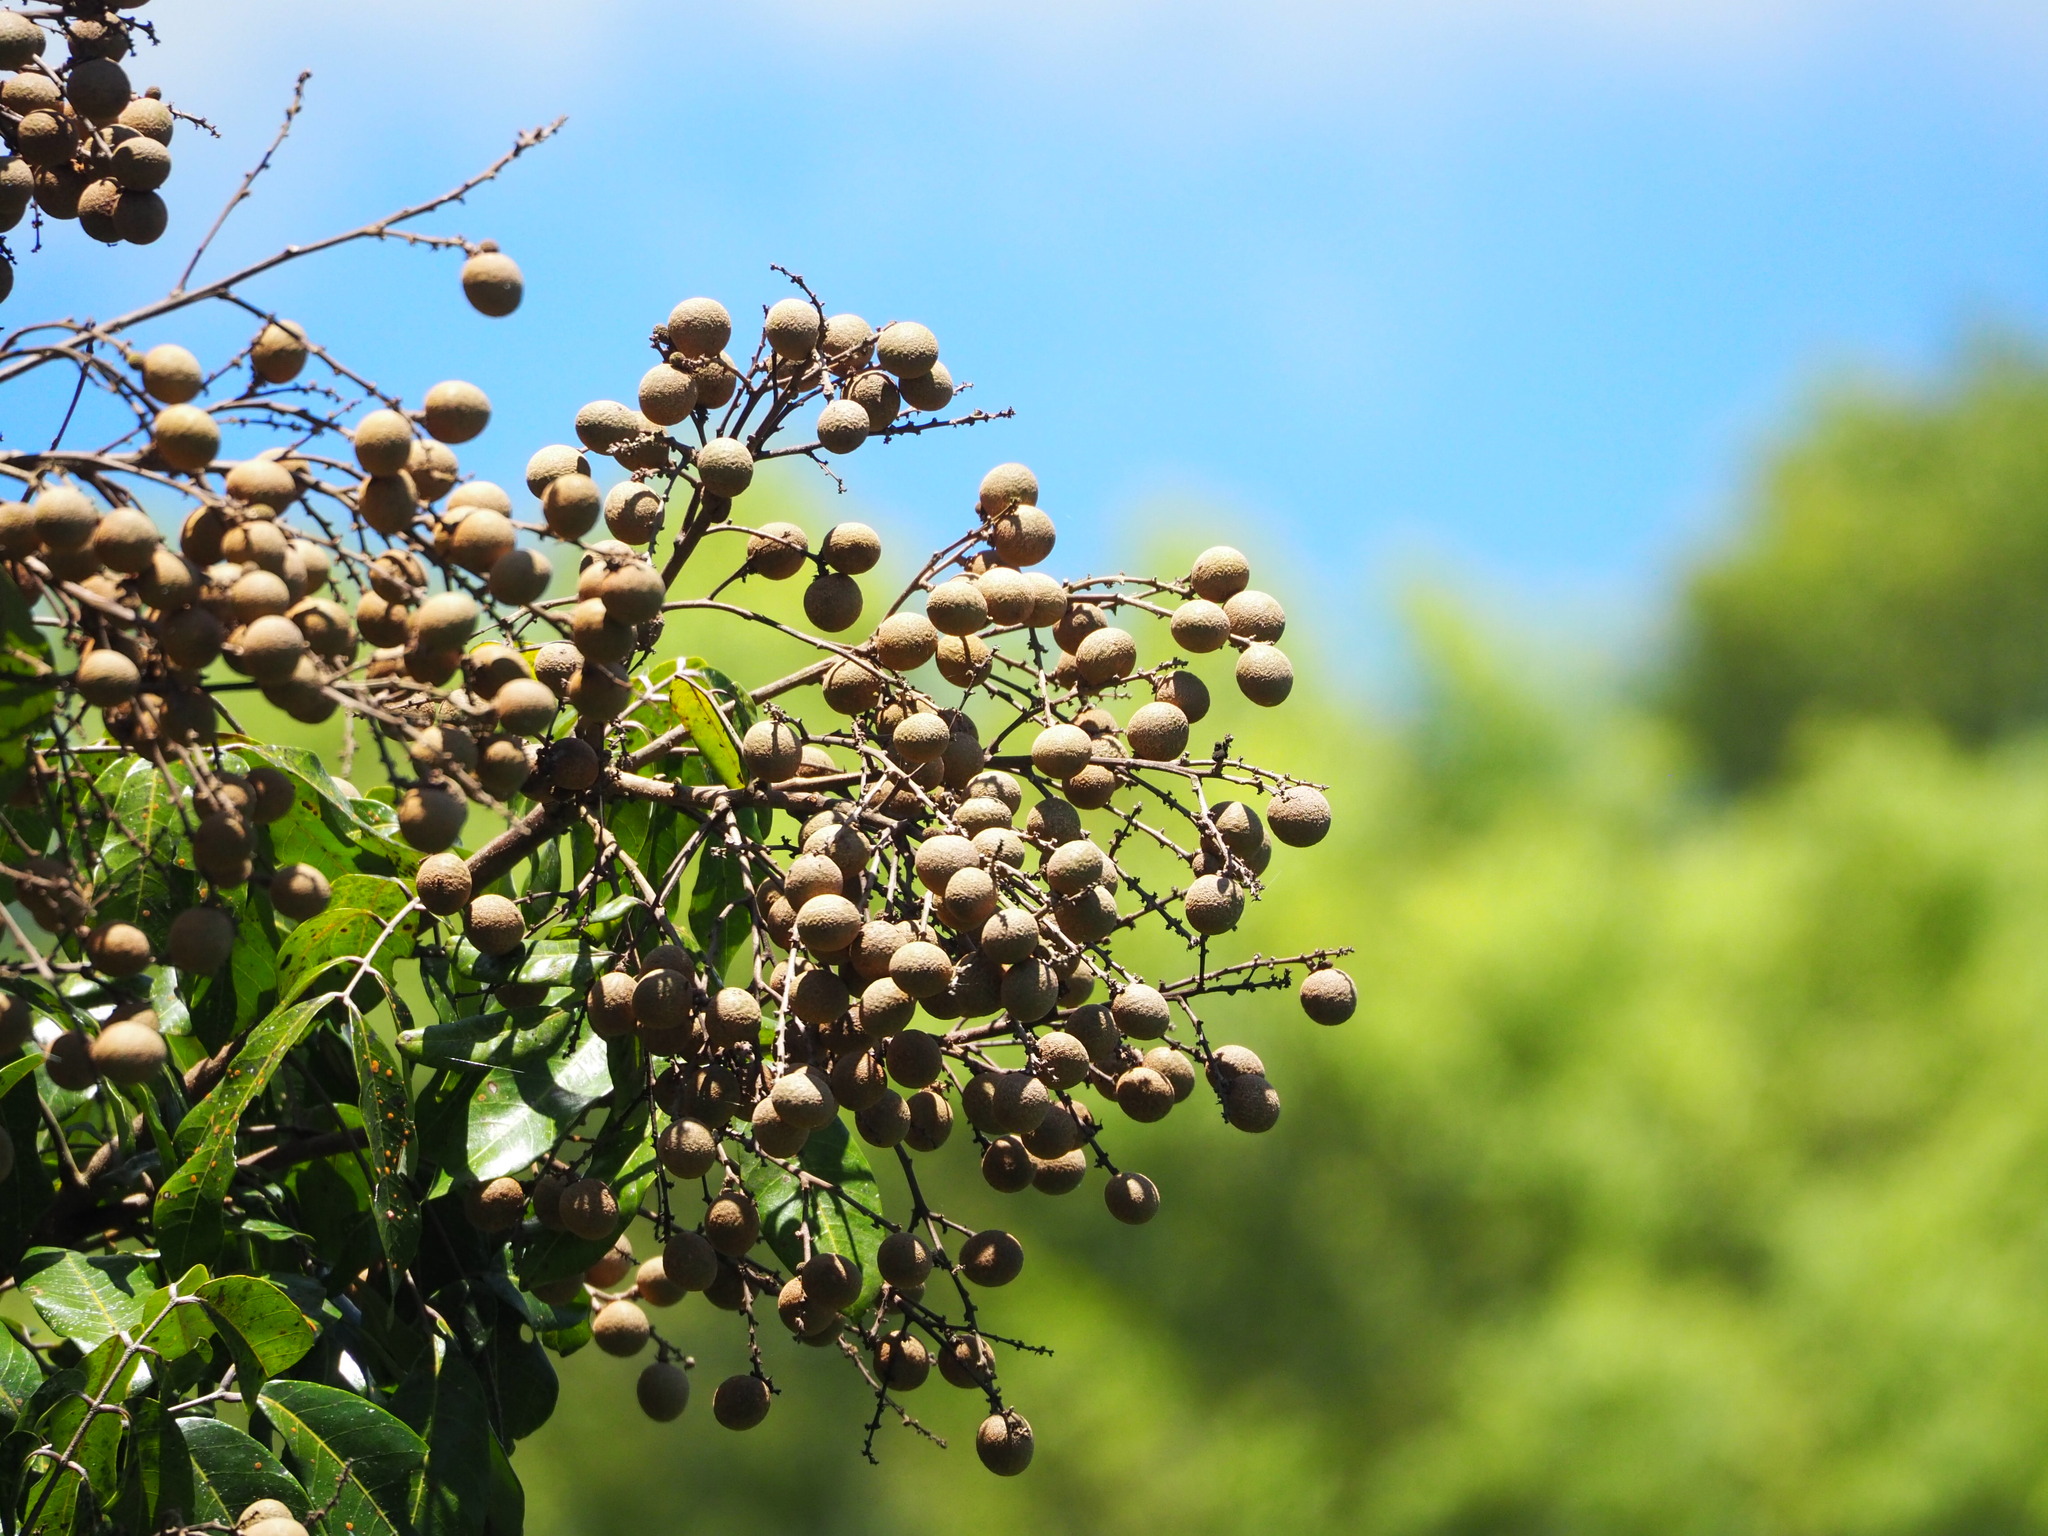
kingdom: Plantae
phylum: Tracheophyta
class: Magnoliopsida
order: Sapindales
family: Sapindaceae
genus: Dimocarpus
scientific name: Dimocarpus longan
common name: Longan
